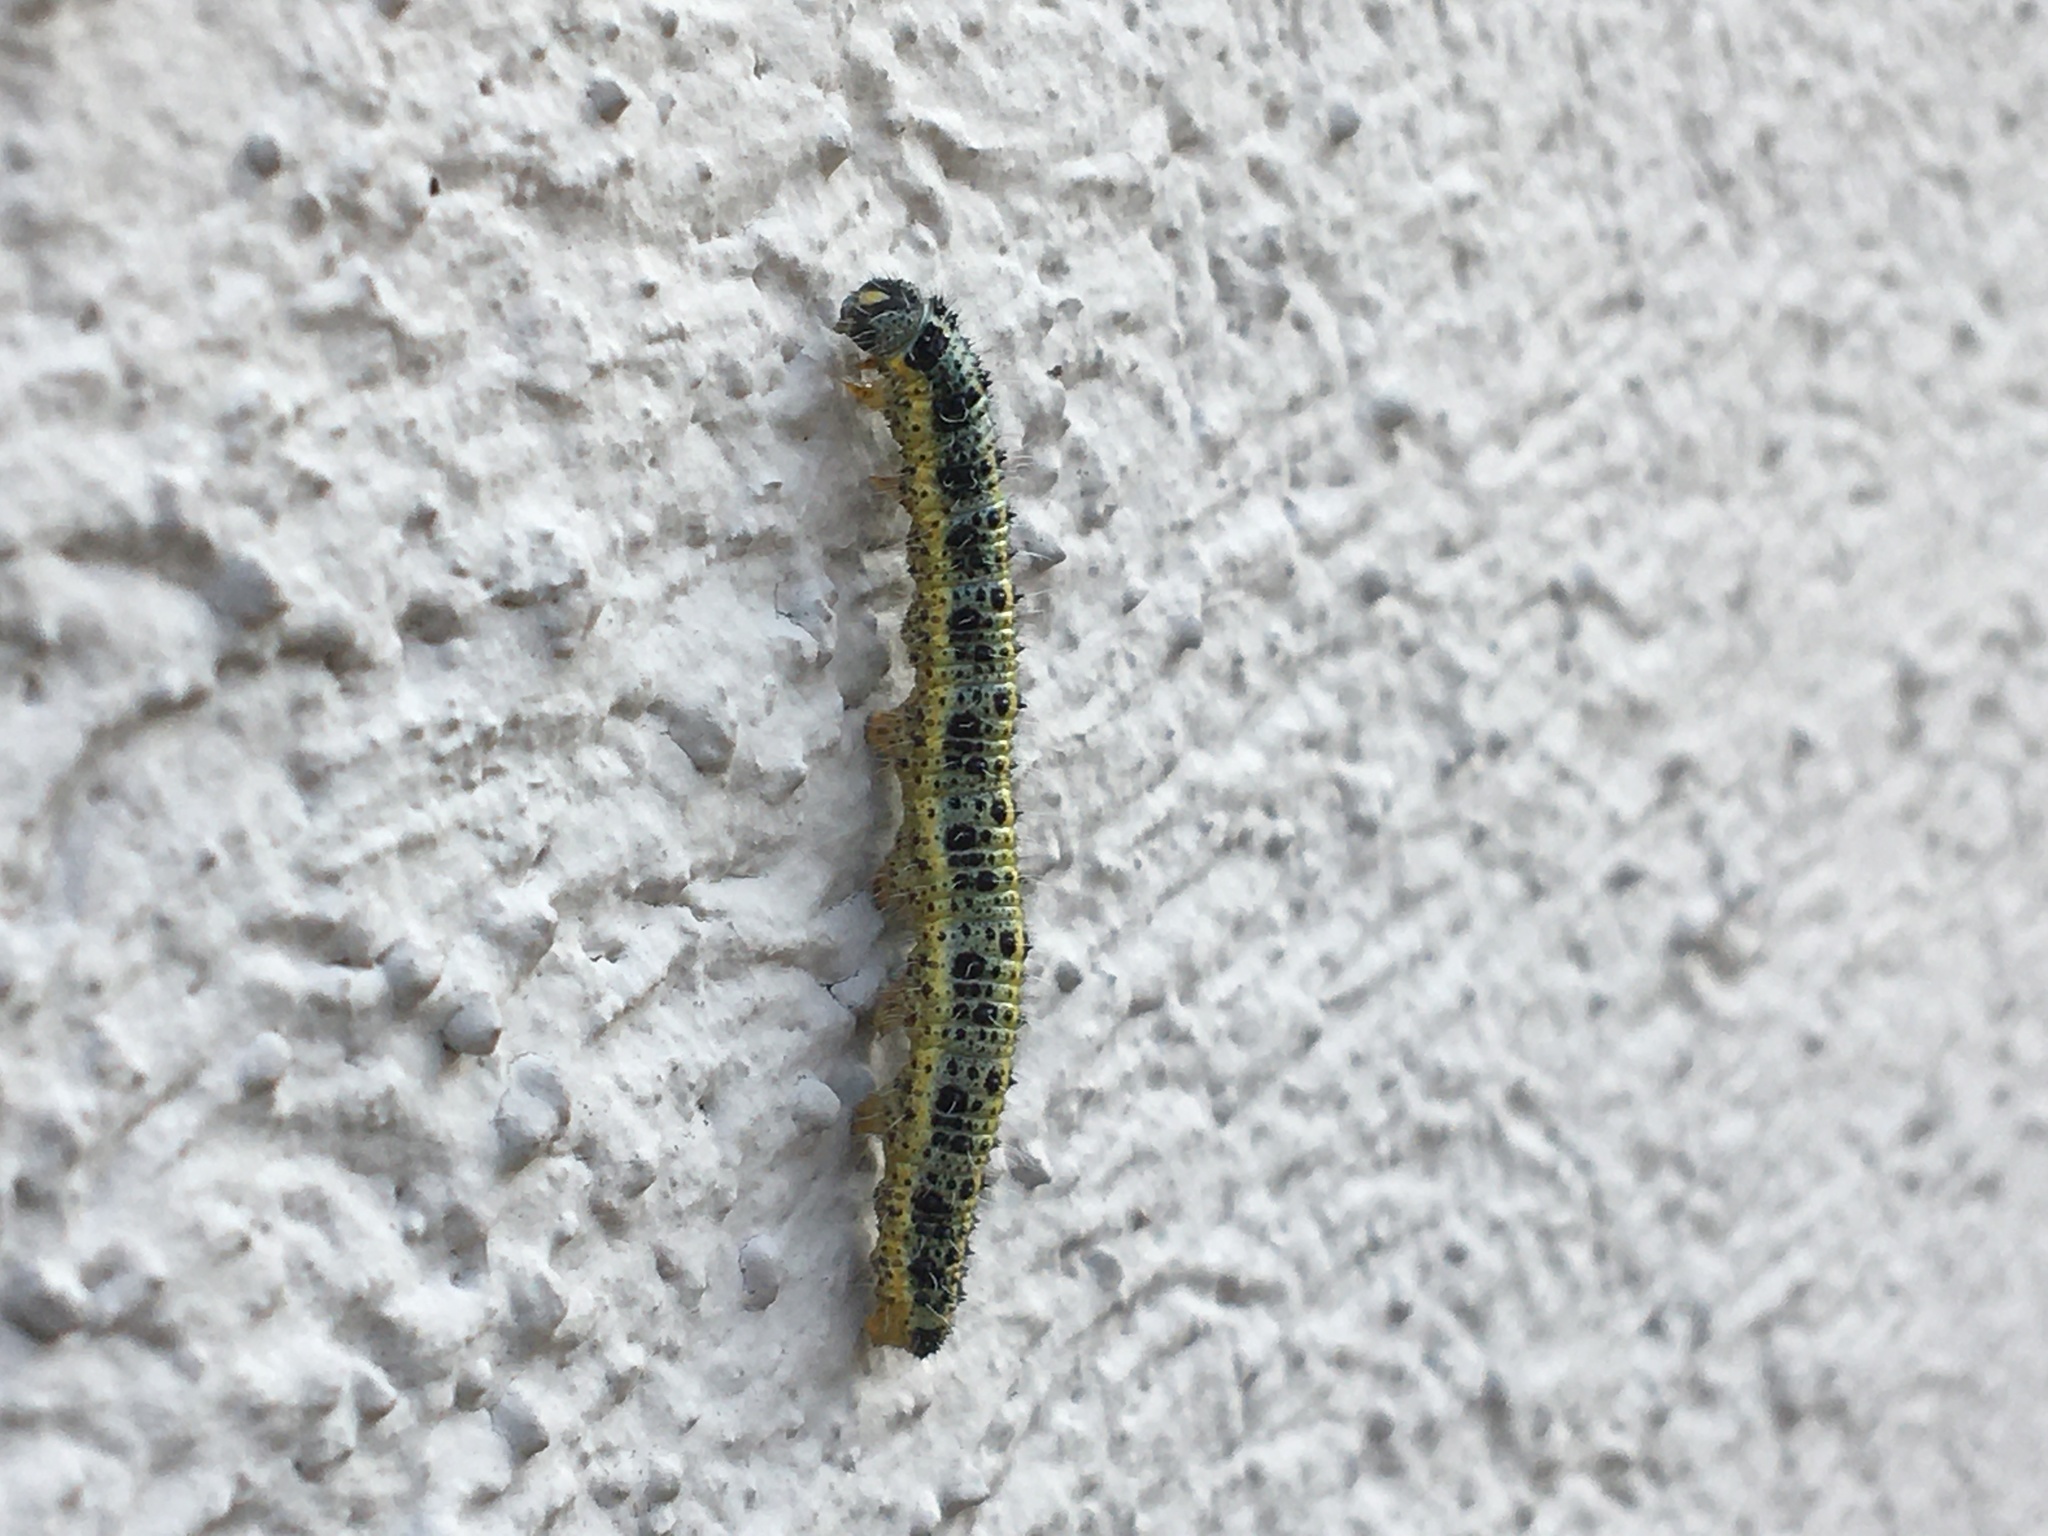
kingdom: Animalia
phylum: Arthropoda
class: Insecta
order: Lepidoptera
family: Pieridae
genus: Pieris
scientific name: Pieris brassicae
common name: Large white
